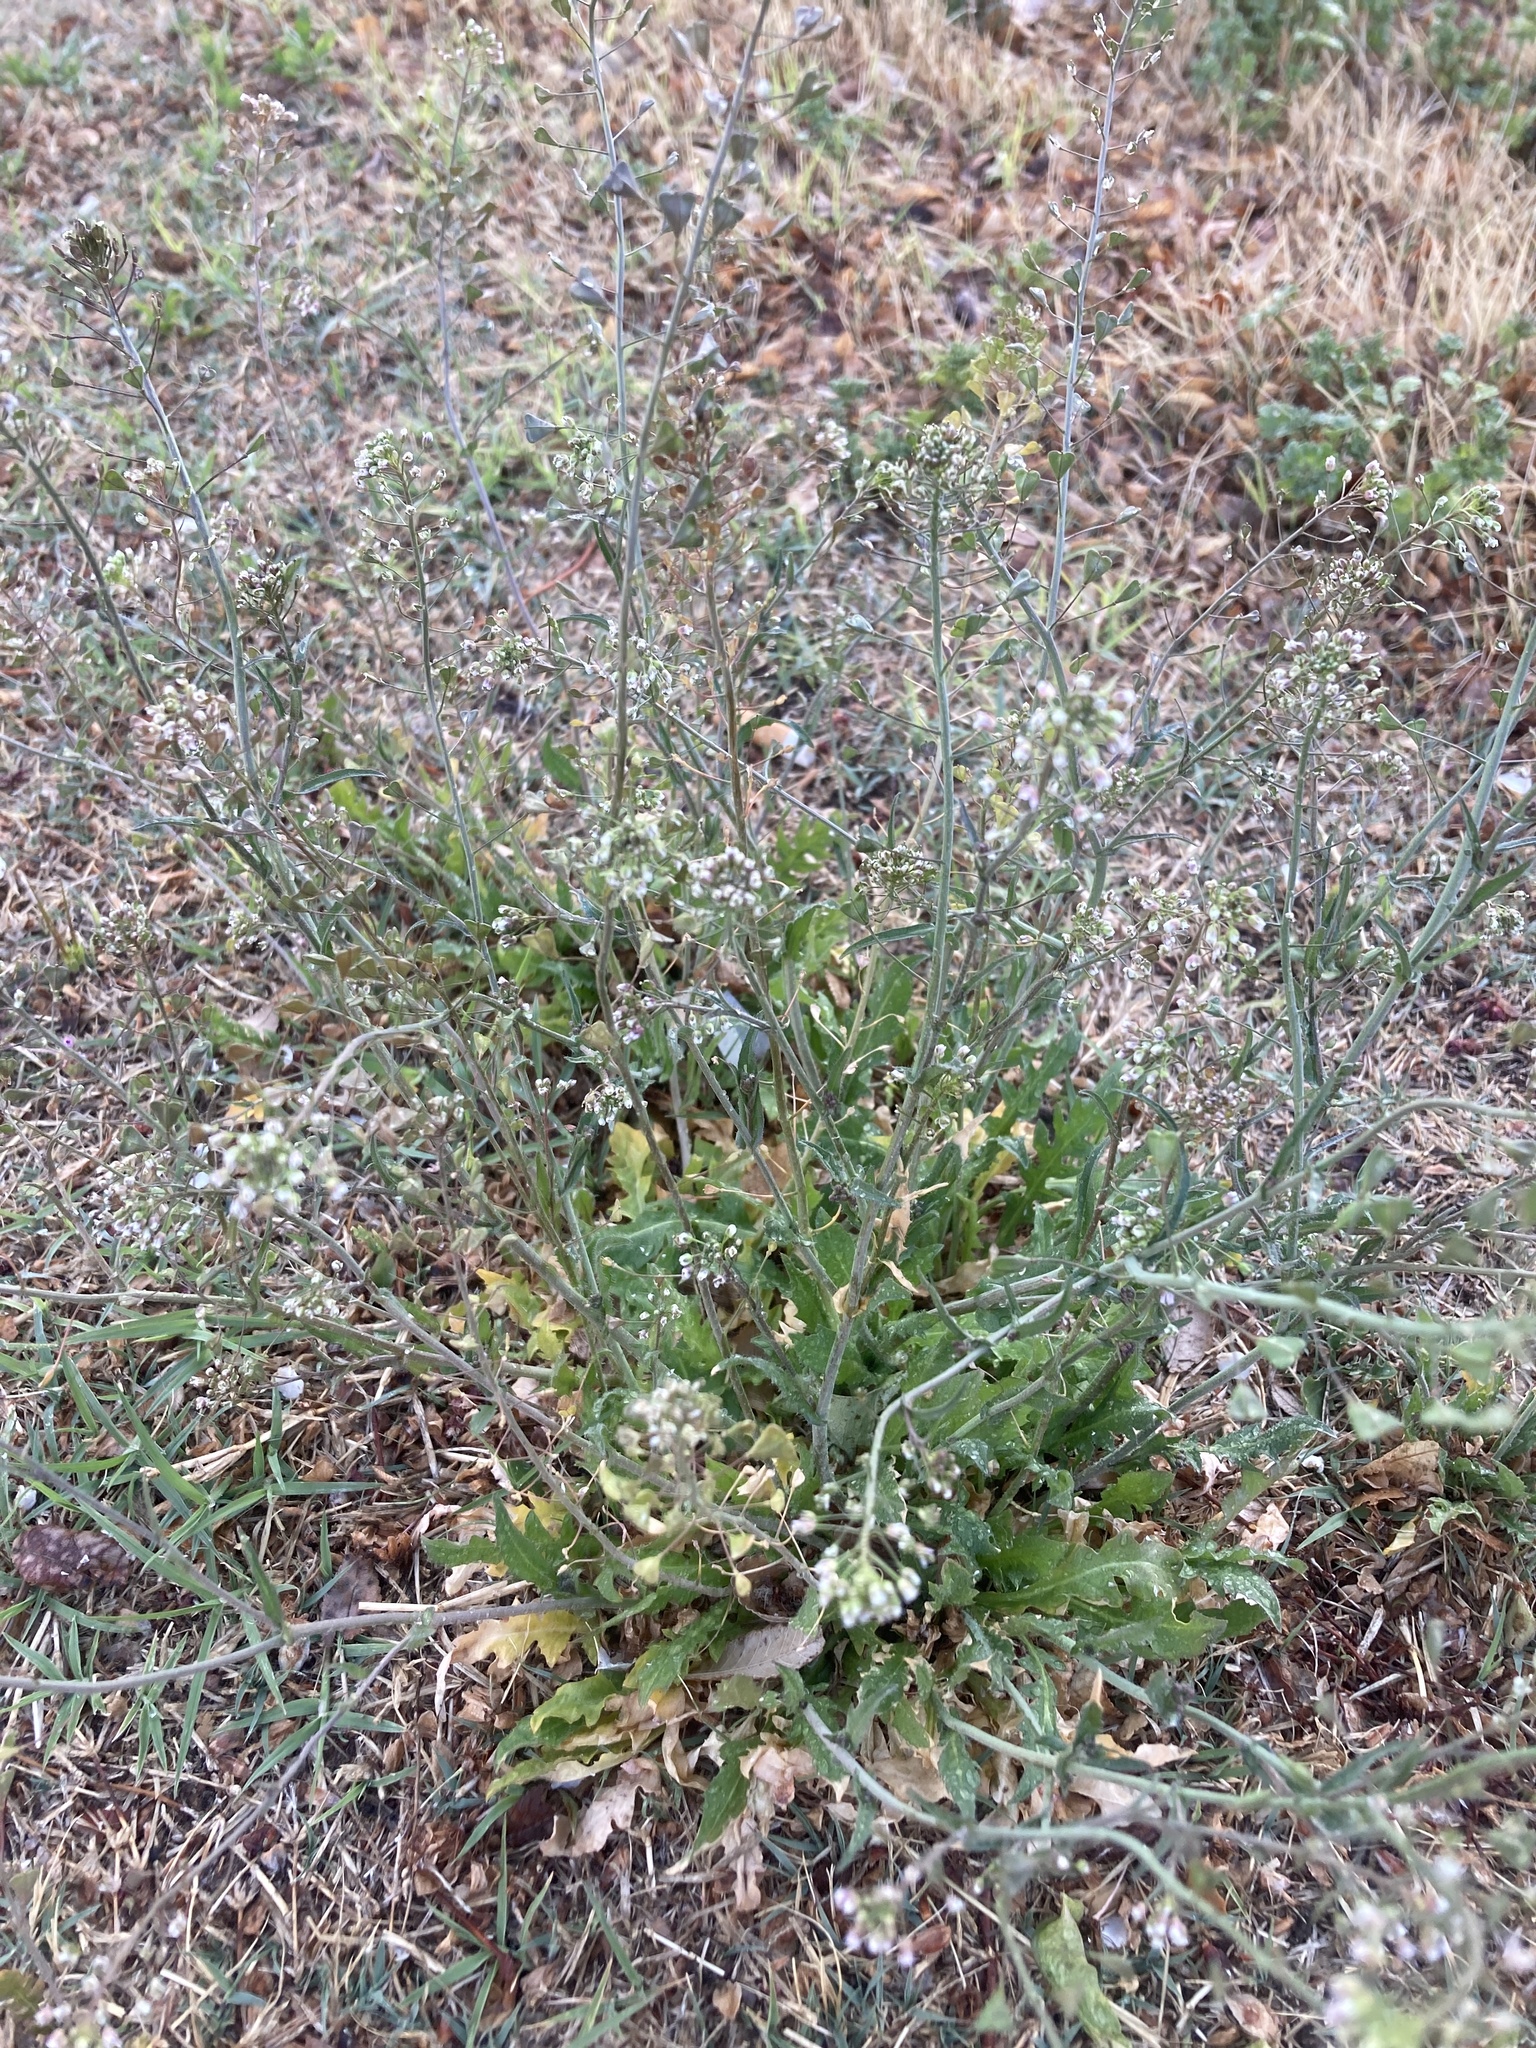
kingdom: Plantae
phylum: Tracheophyta
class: Magnoliopsida
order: Brassicales
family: Brassicaceae
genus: Capsella
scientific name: Capsella bursa-pastoris
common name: Shepherd's purse
